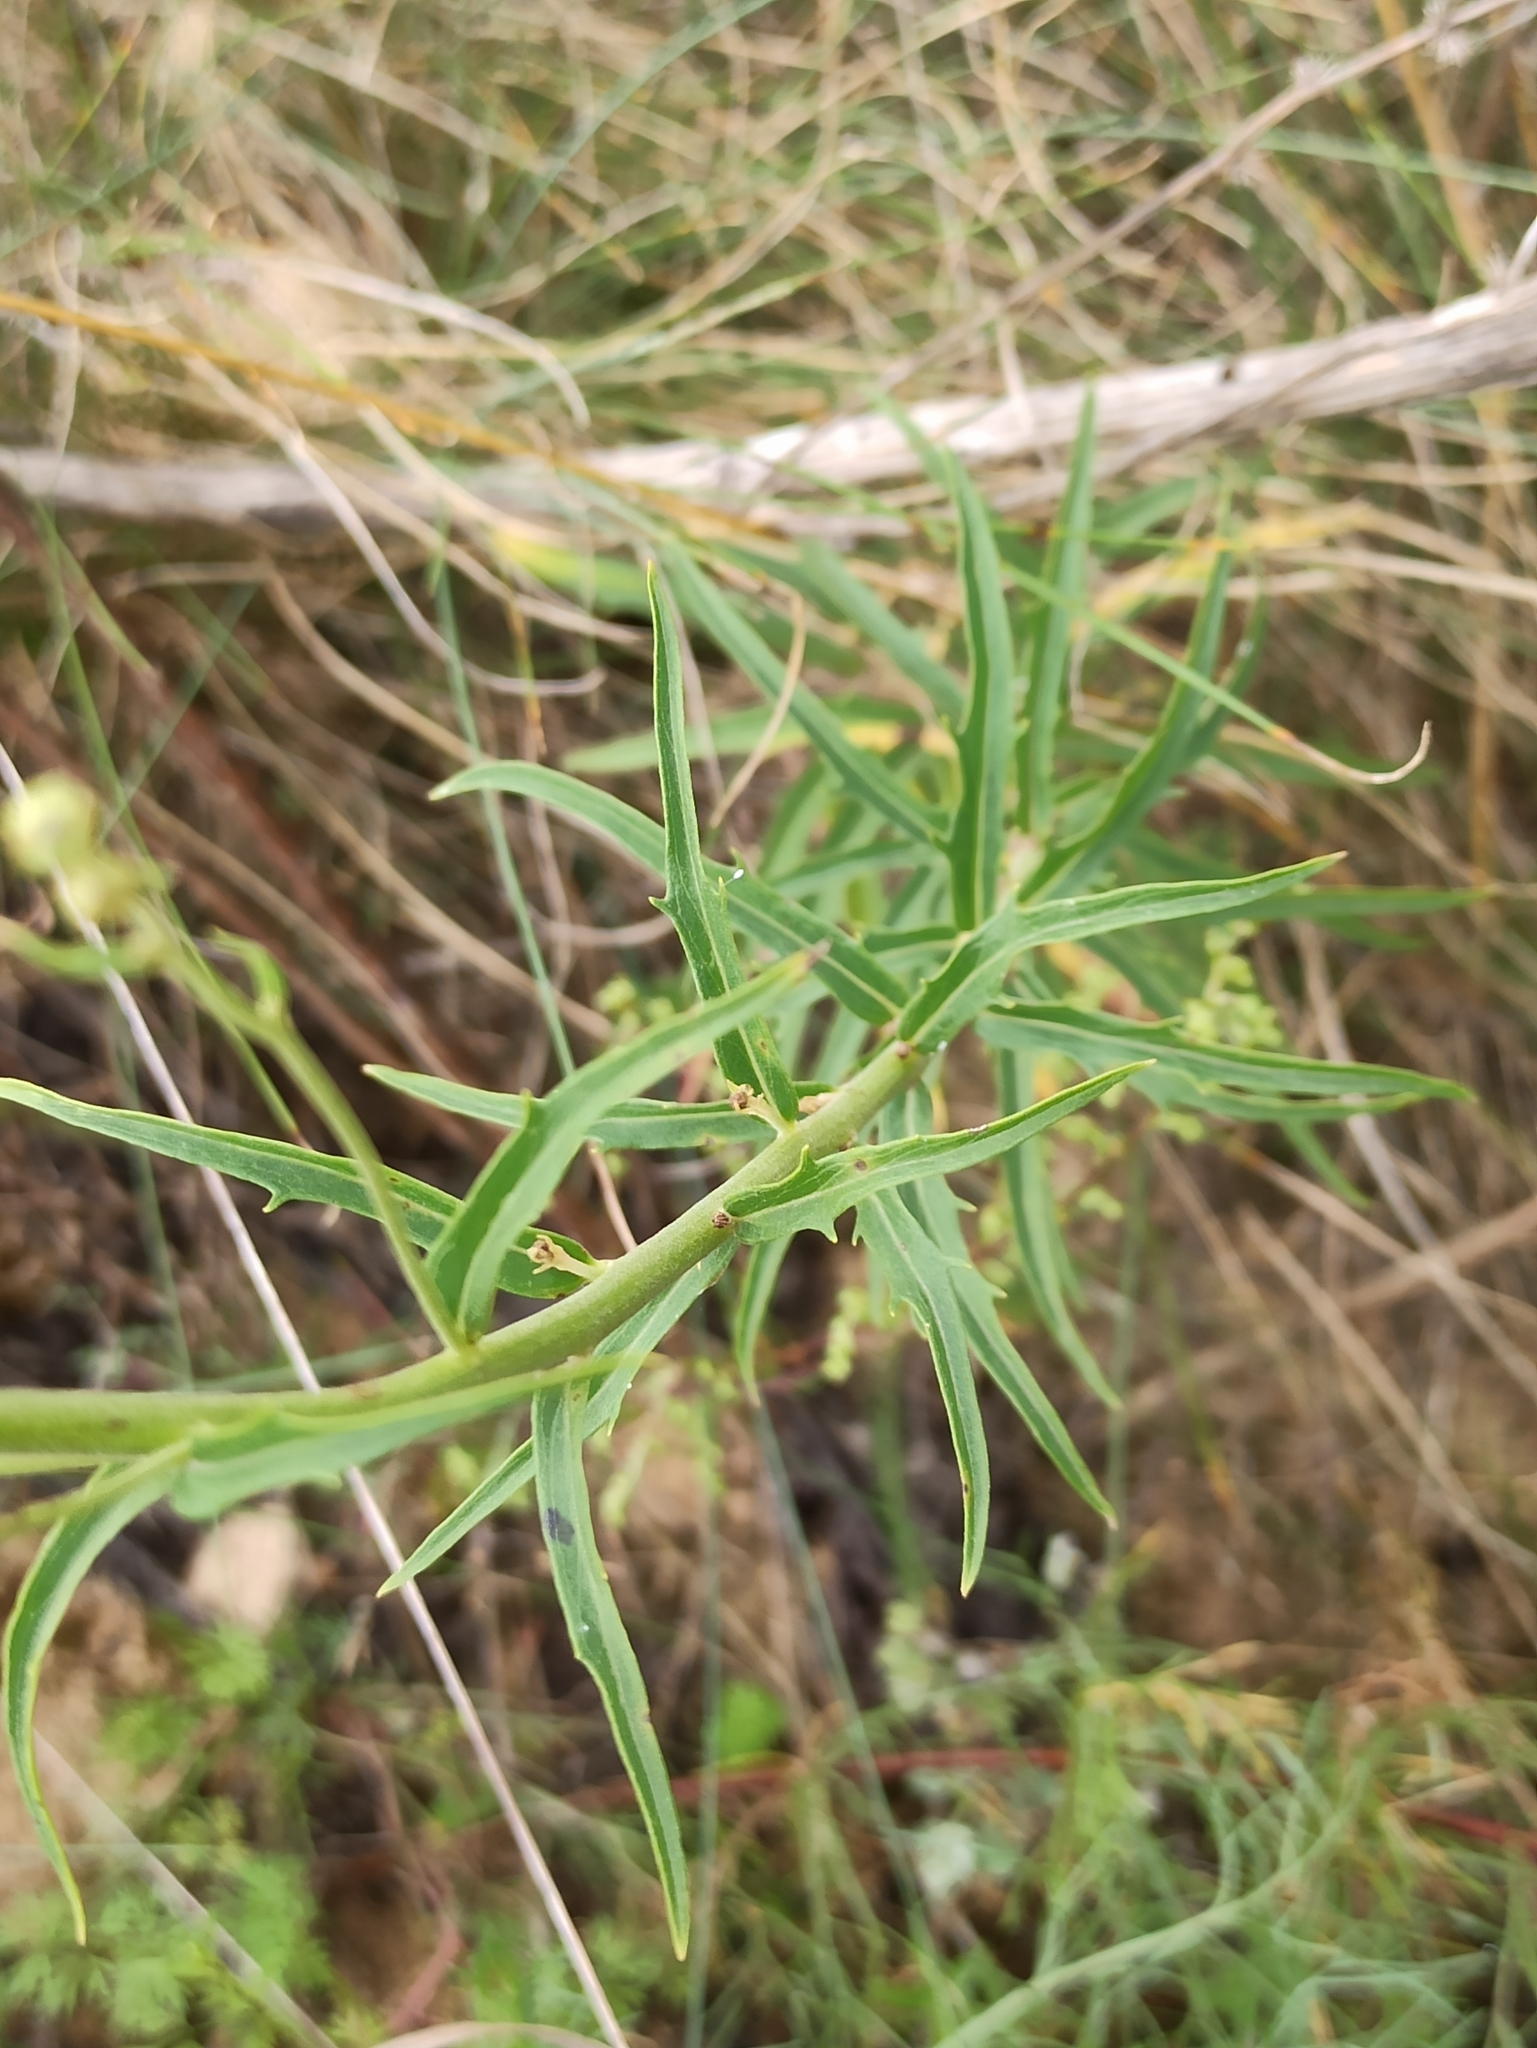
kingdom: Plantae
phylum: Tracheophyta
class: Magnoliopsida
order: Asterales
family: Asteraceae
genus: Hieracium
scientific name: Hieracium umbellatum
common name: Northern hawkweed
